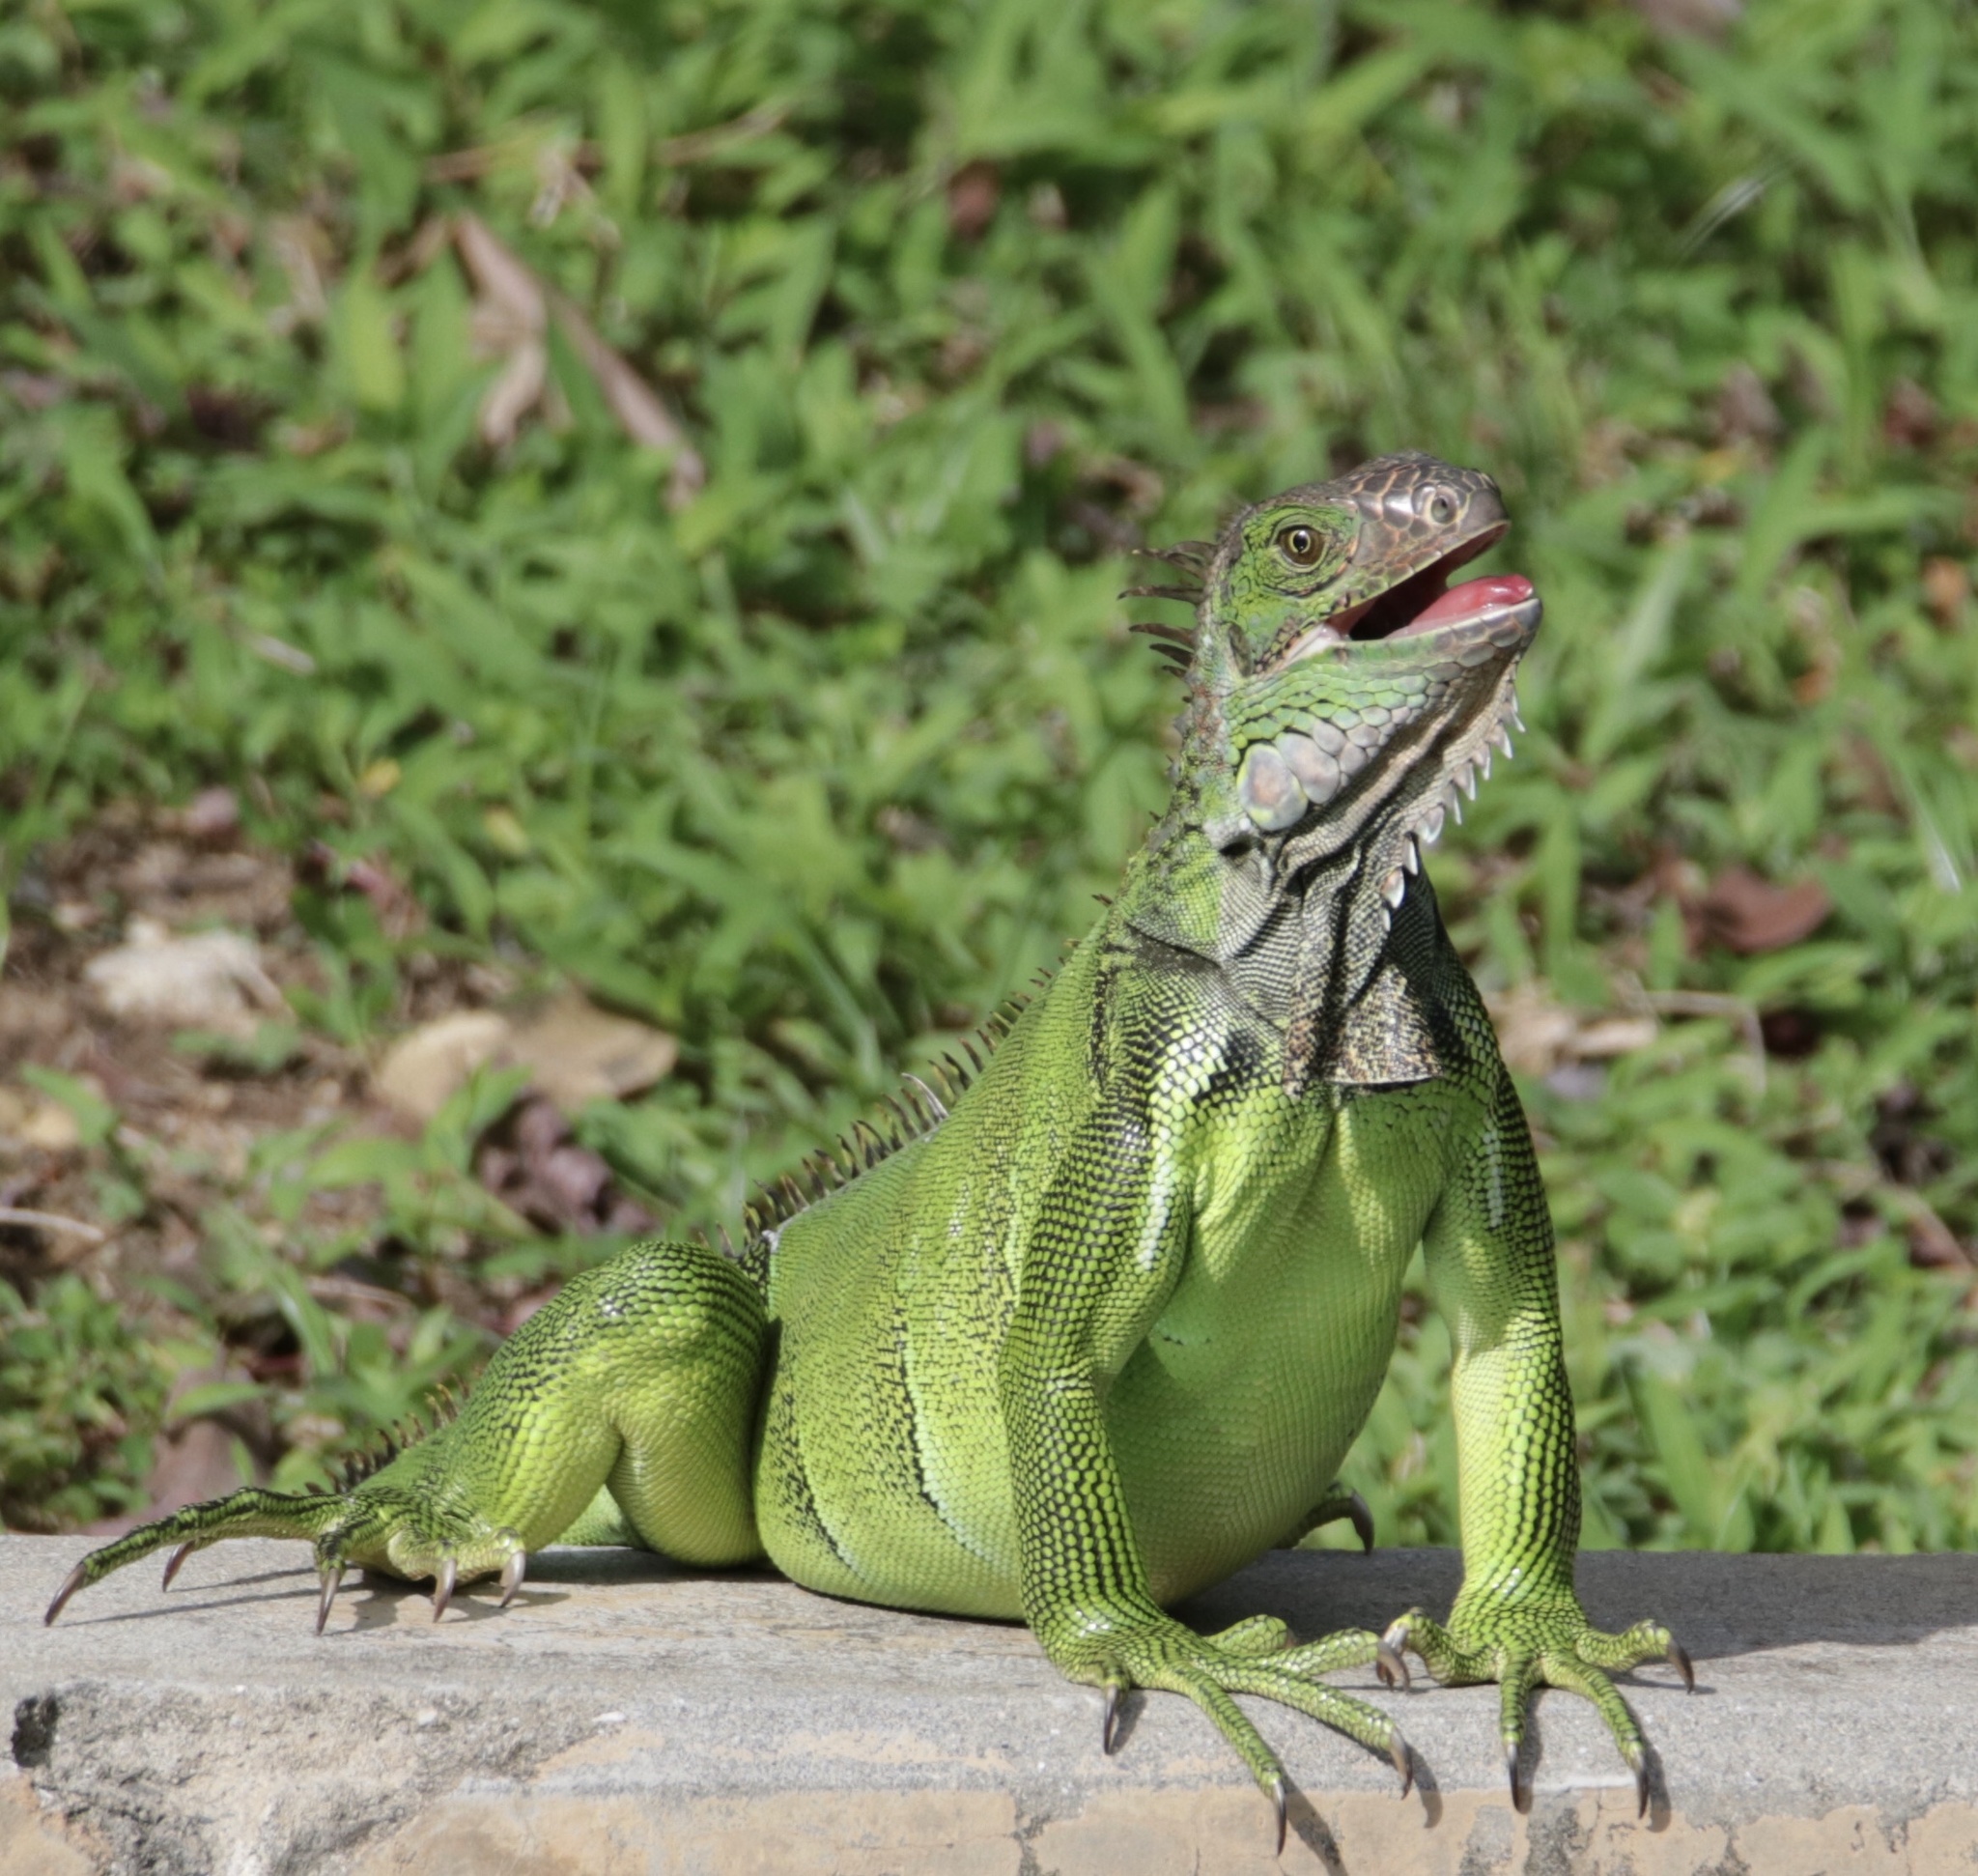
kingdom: Animalia
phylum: Chordata
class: Squamata
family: Iguanidae
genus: Iguana
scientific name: Iguana iguana
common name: Green iguana
